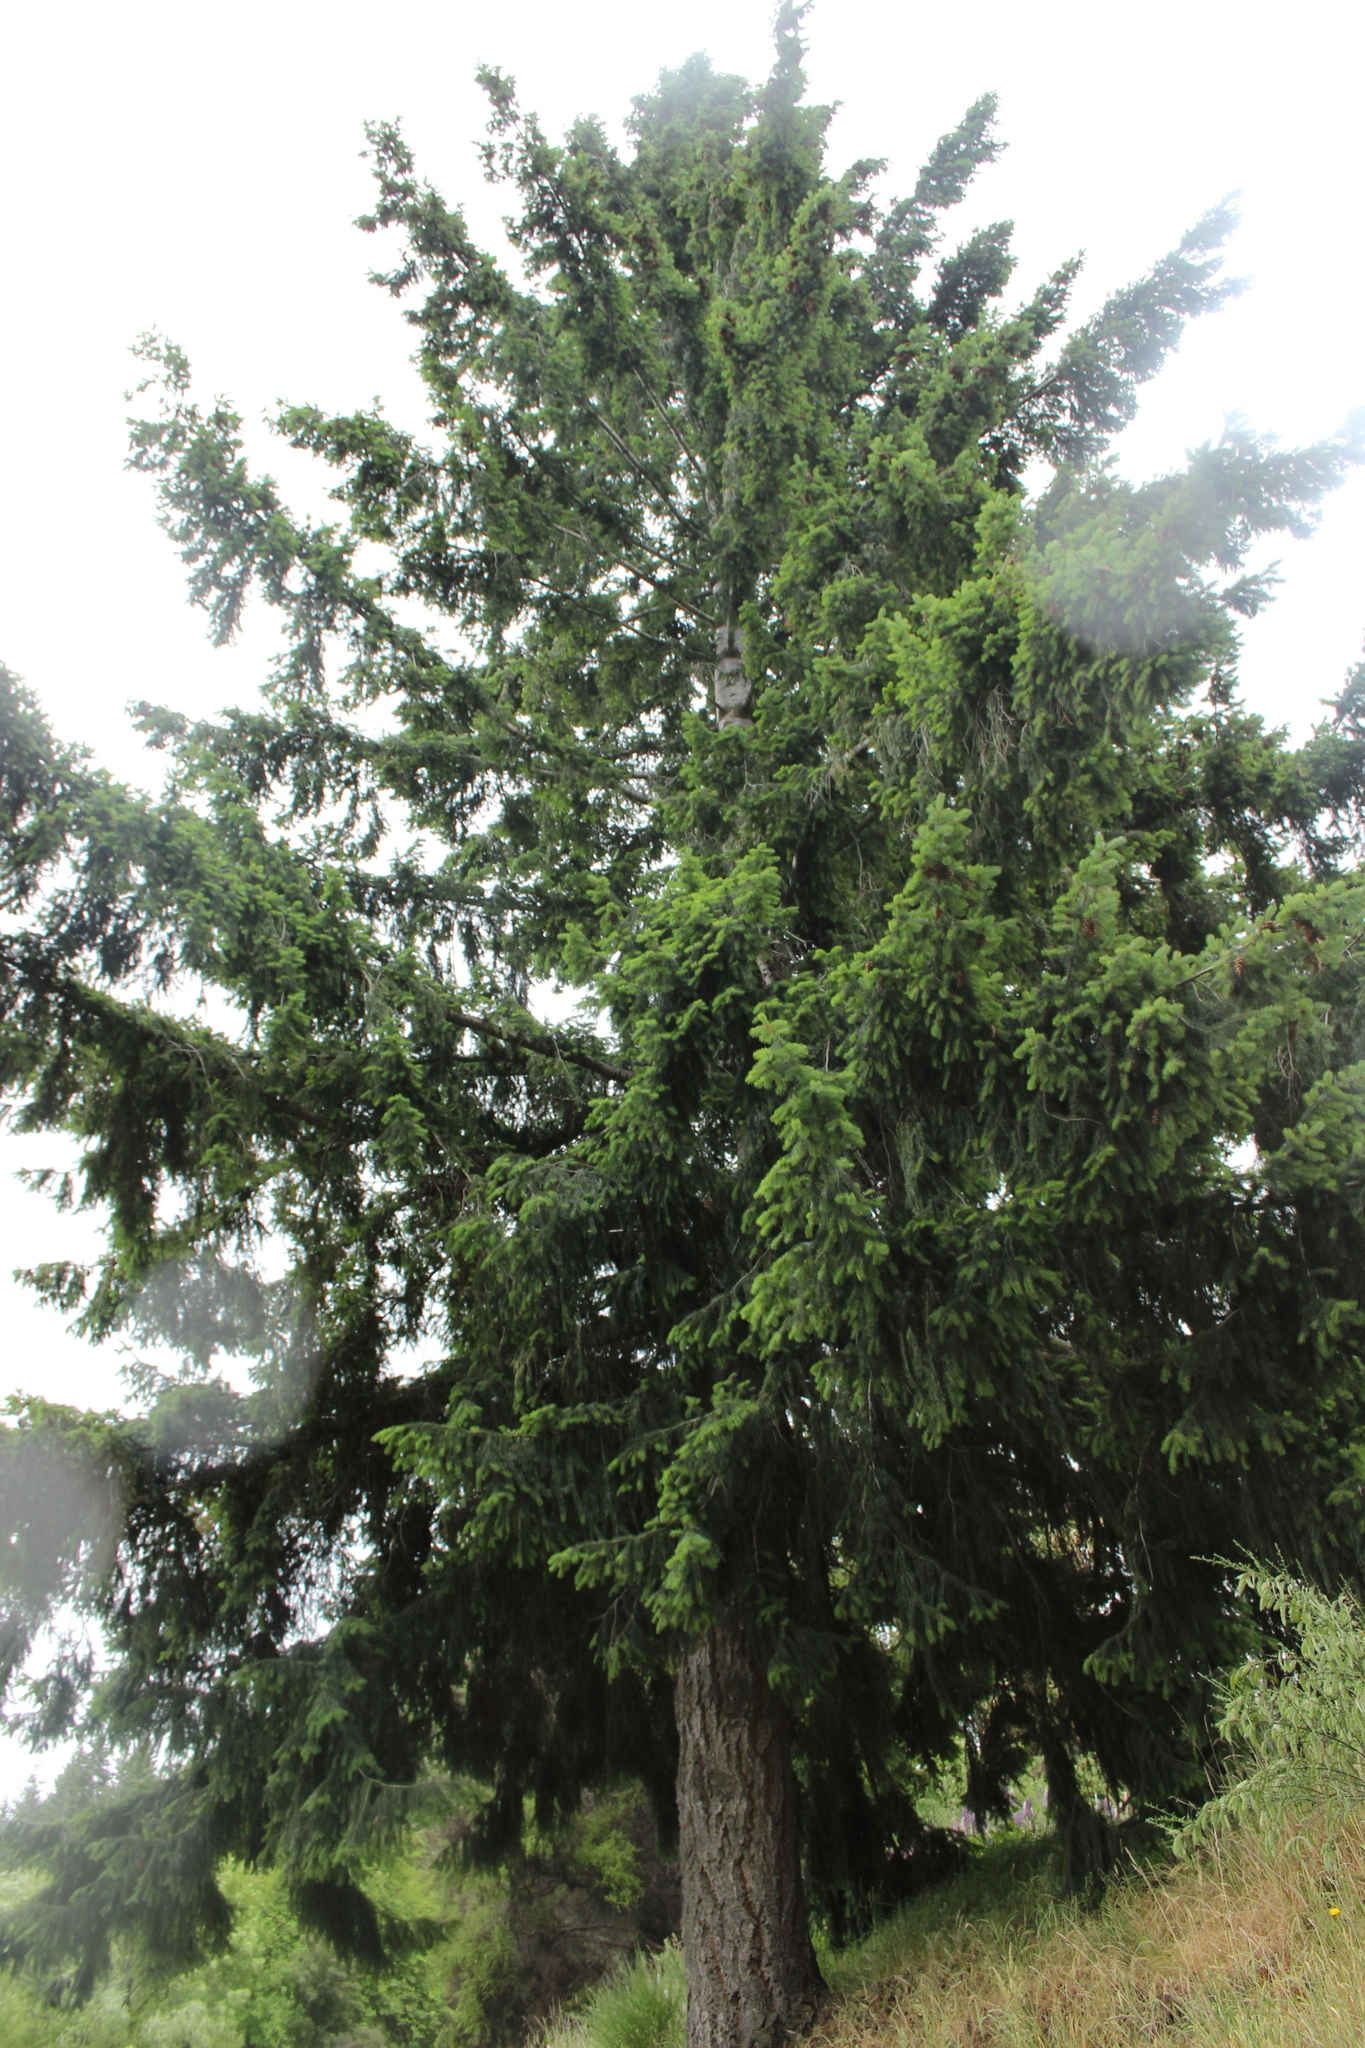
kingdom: Plantae
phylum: Tracheophyta
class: Pinopsida
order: Pinales
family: Pinaceae
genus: Pseudotsuga
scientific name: Pseudotsuga menziesii
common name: Douglas fir
